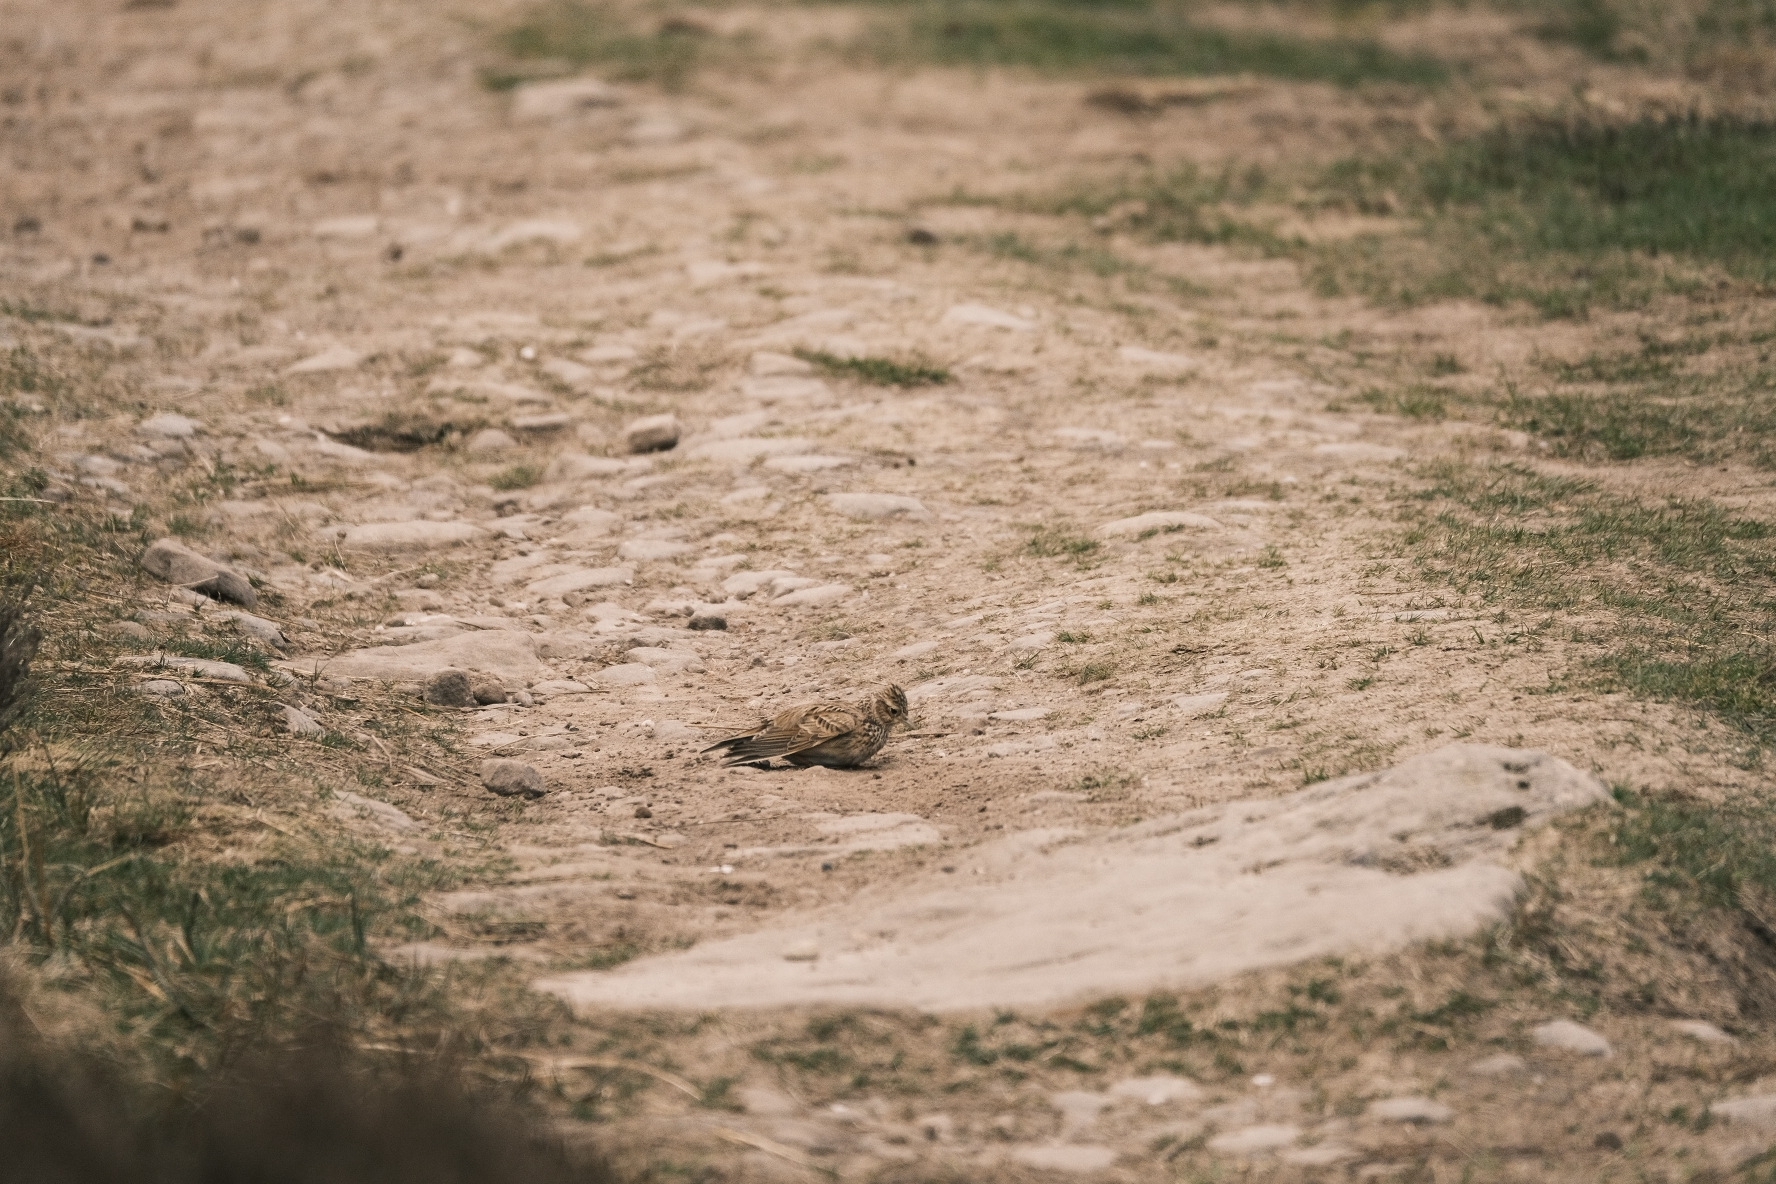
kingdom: Animalia
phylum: Chordata
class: Aves
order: Passeriformes
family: Alaudidae
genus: Alauda
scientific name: Alauda arvensis
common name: Eurasian skylark
